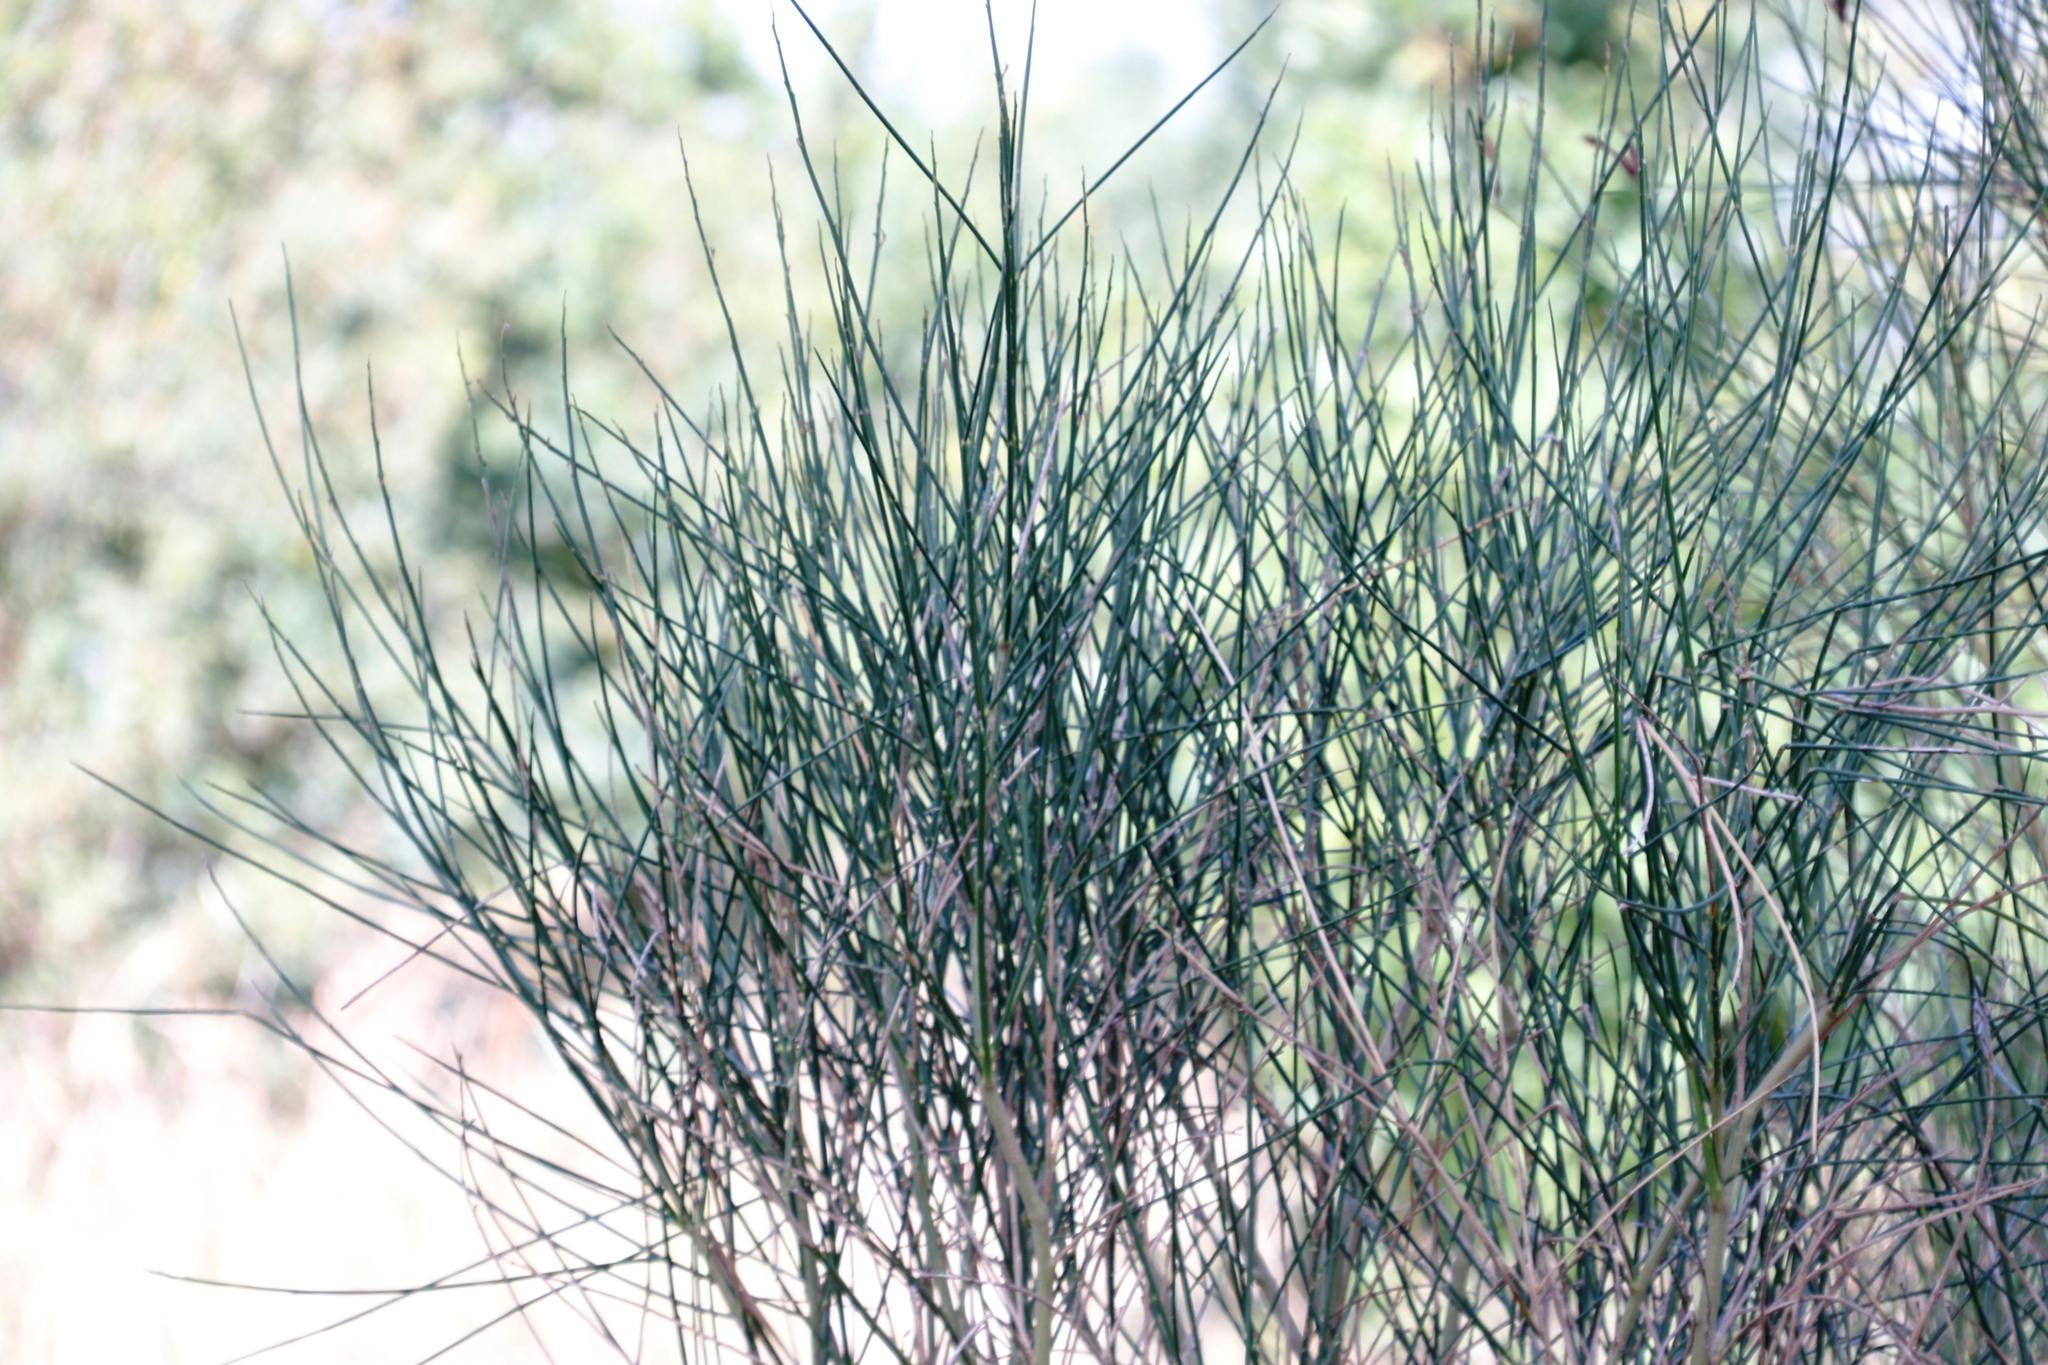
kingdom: Plantae
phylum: Tracheophyta
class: Magnoliopsida
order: Fabales
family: Fabaceae
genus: Spartium
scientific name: Spartium junceum
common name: Spanish broom
